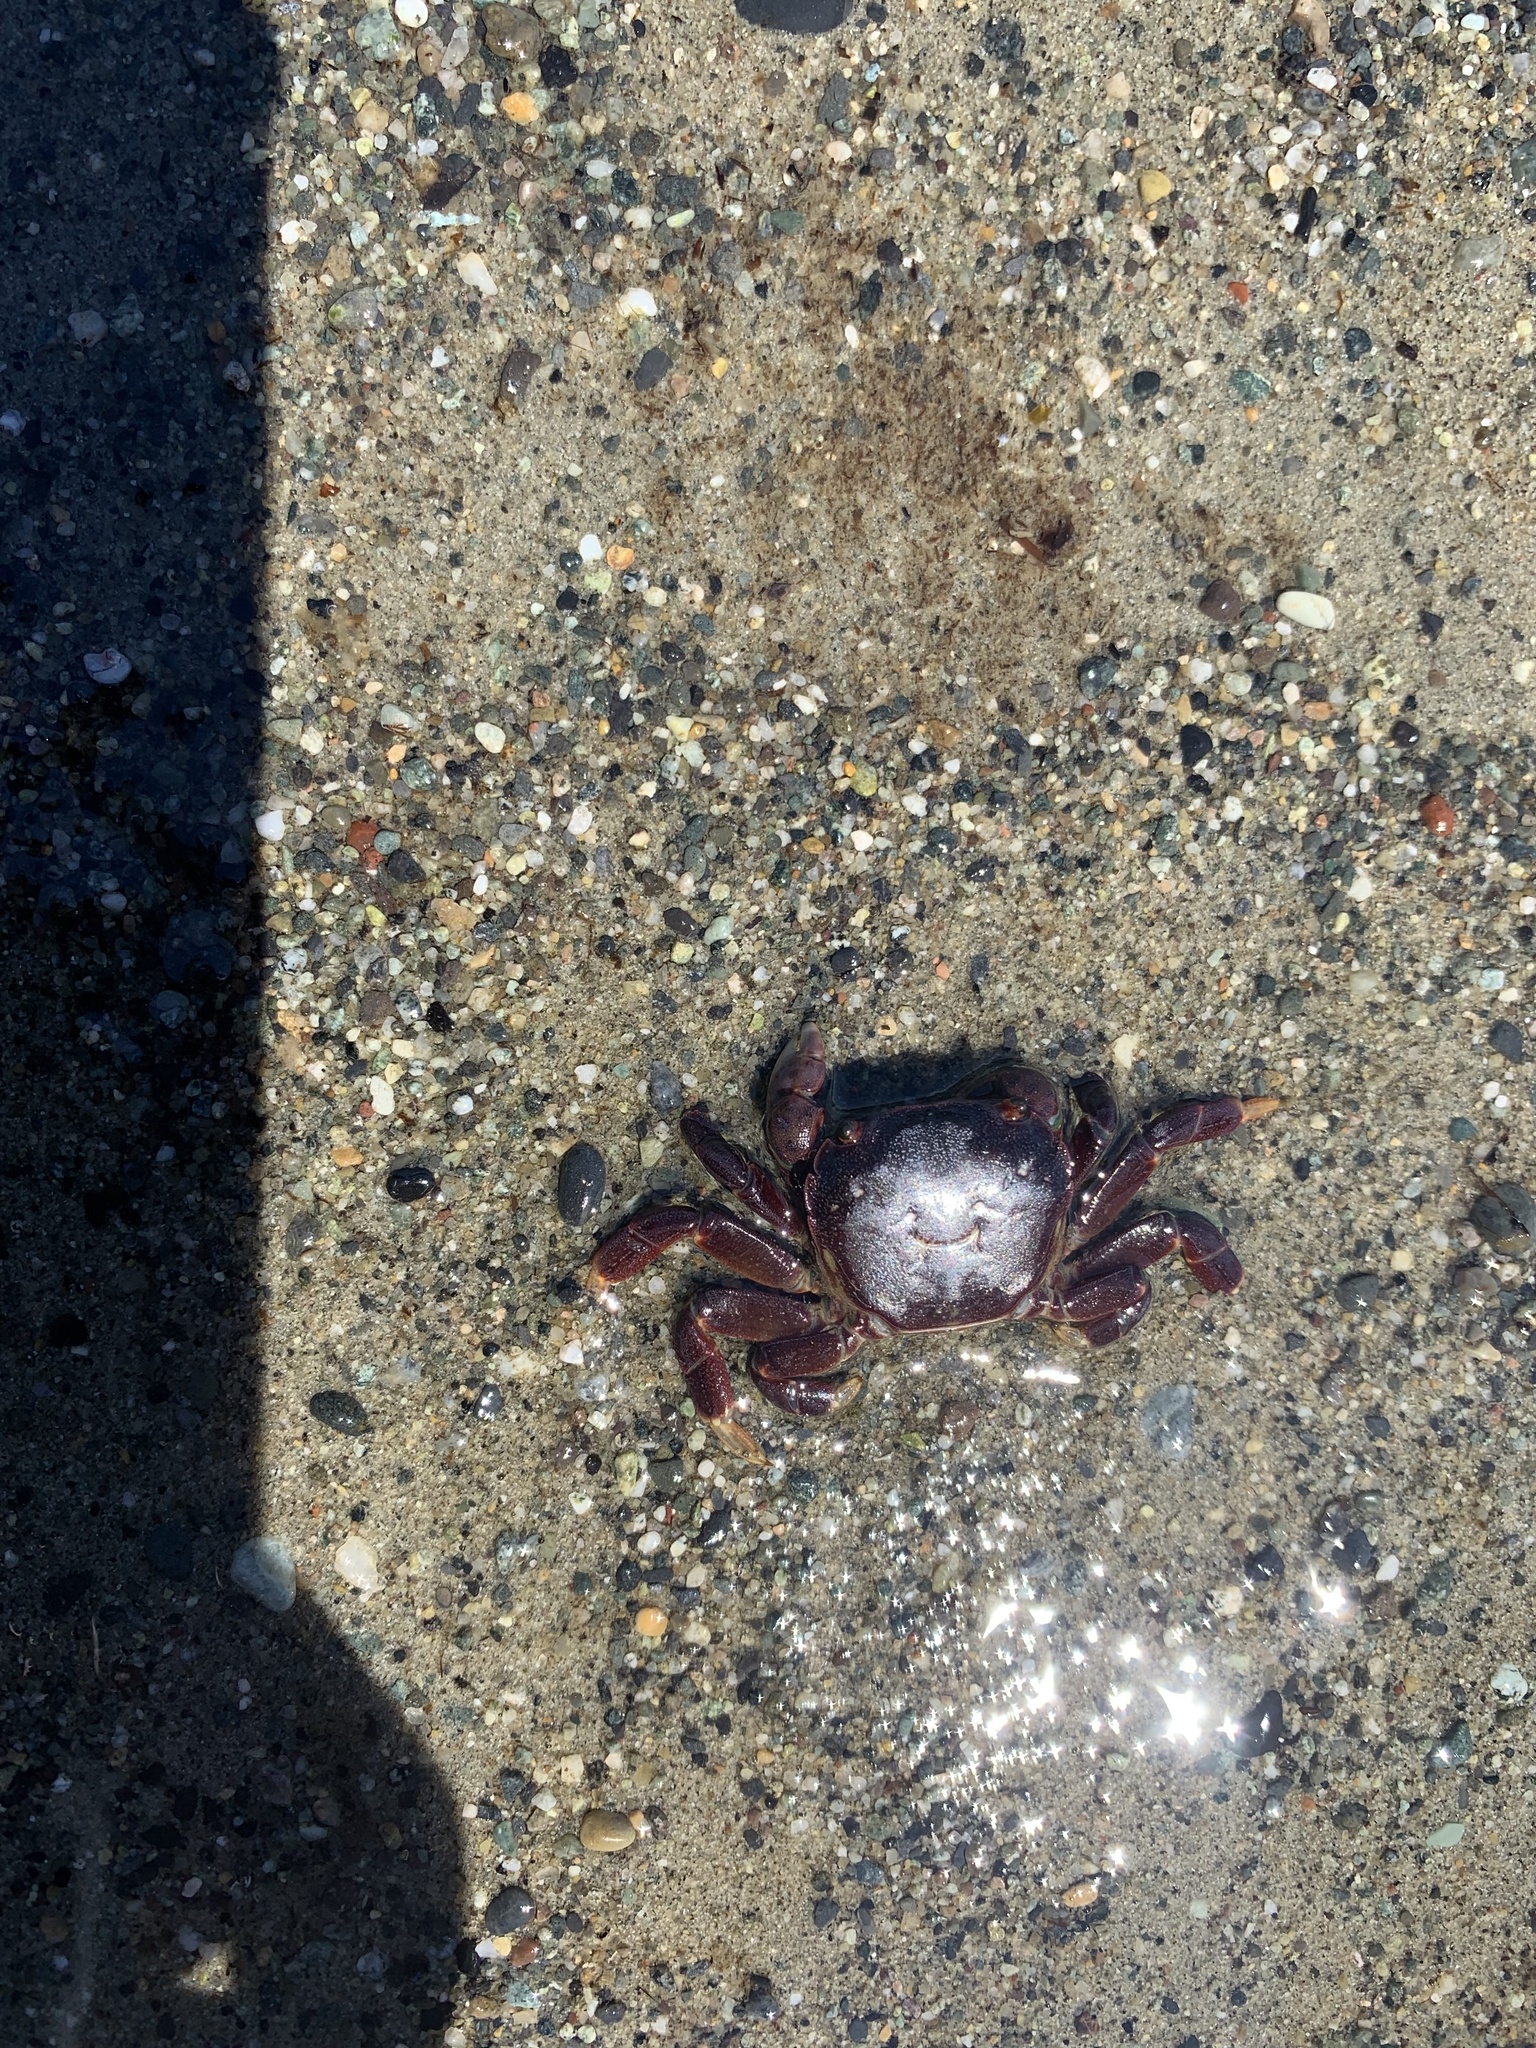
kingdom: Animalia
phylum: Arthropoda
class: Malacostraca
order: Decapoda
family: Varunidae
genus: Hemigrapsus
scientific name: Hemigrapsus nudus
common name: Purple shore crab
